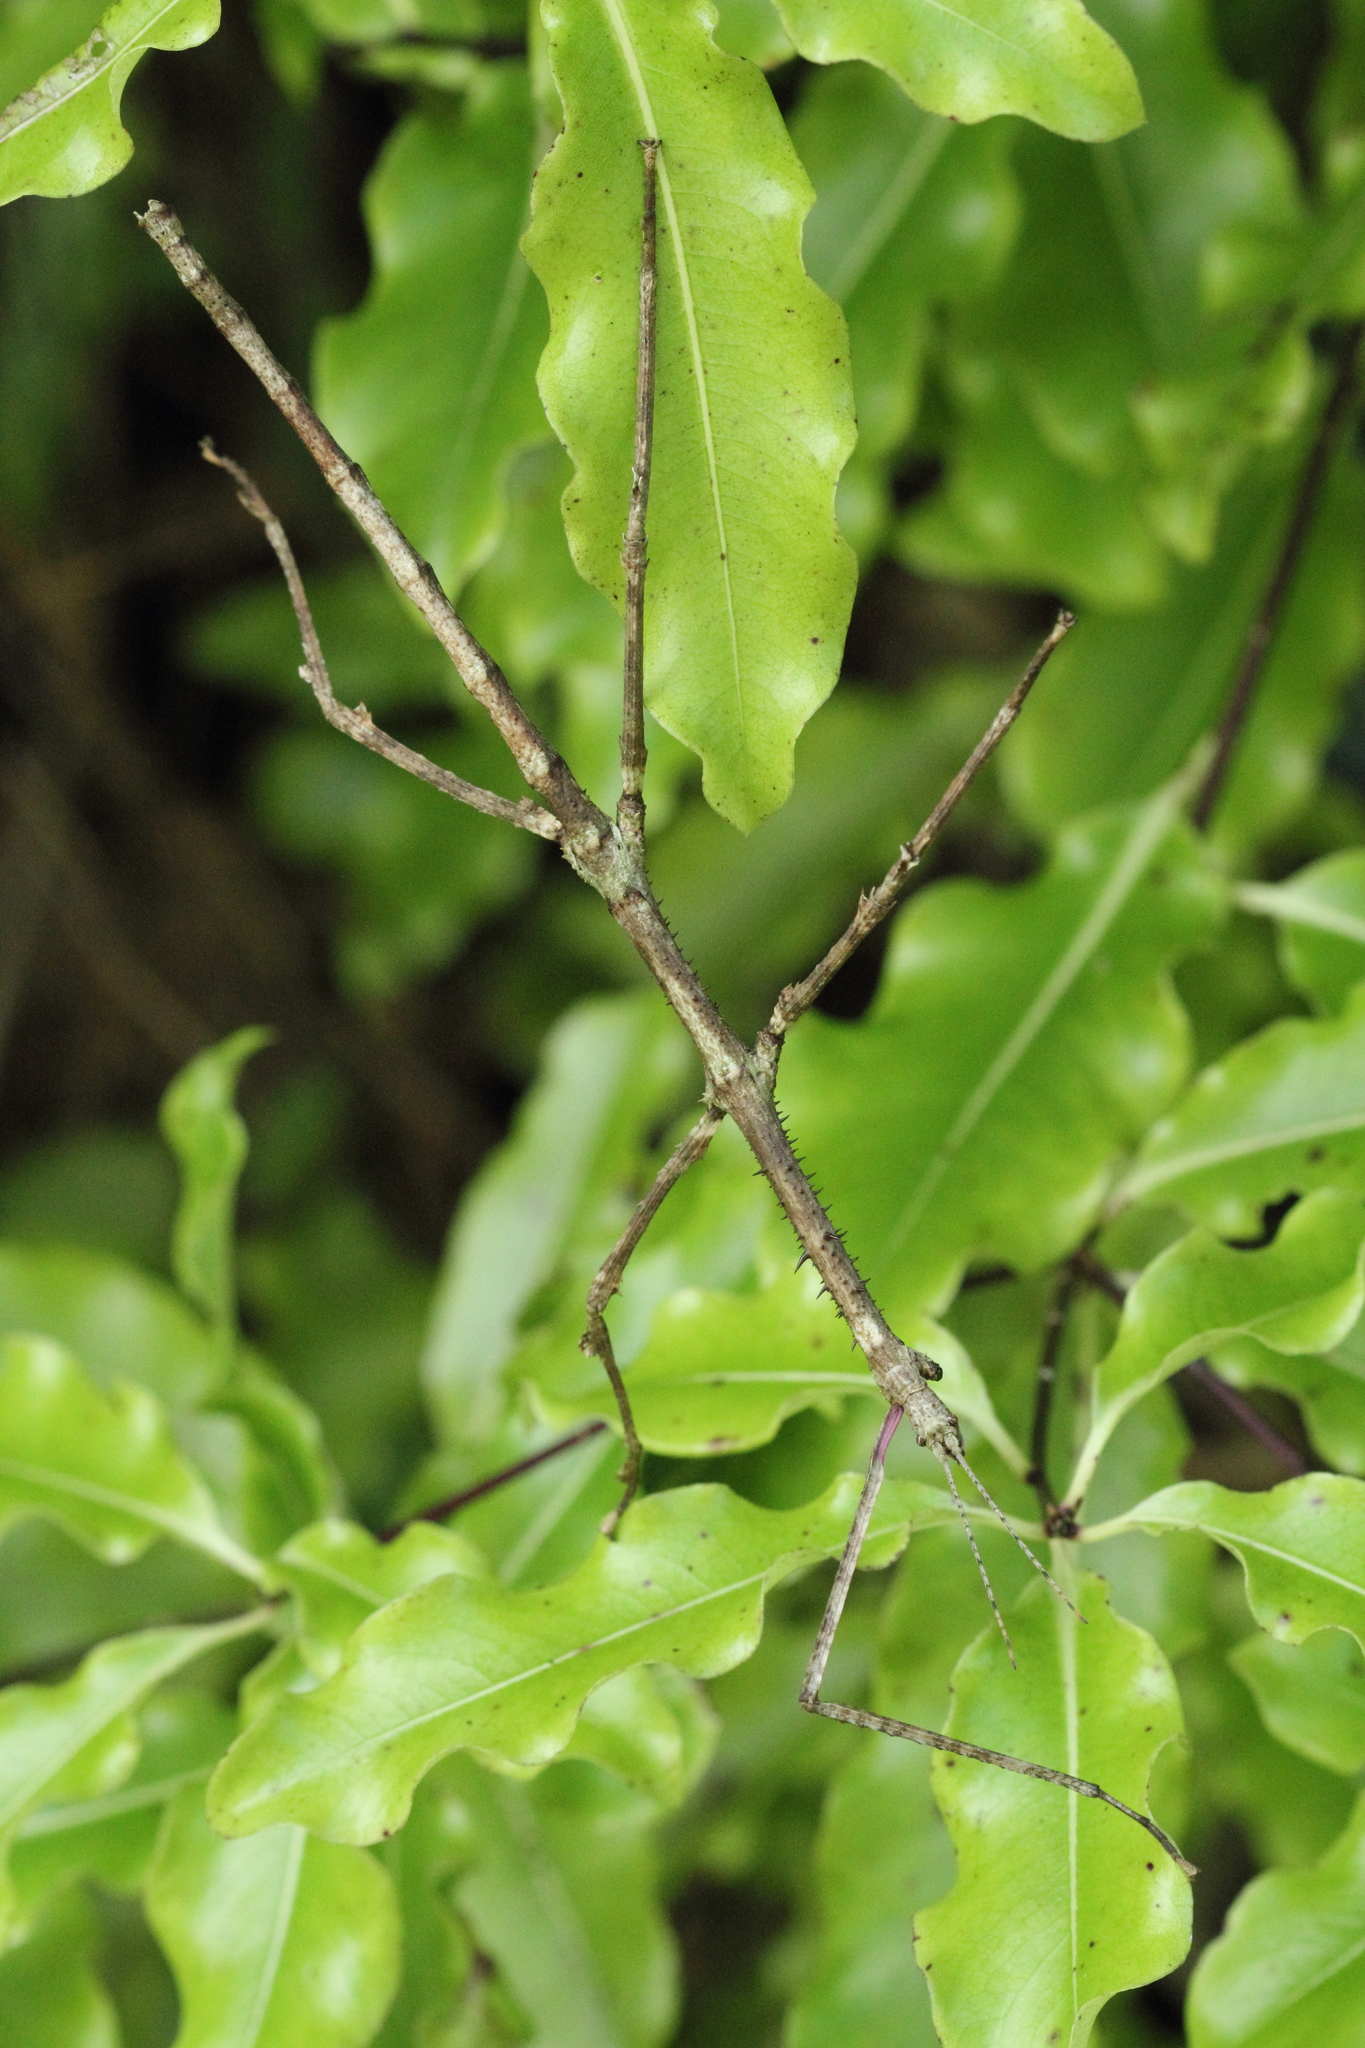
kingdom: Animalia
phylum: Arthropoda
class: Insecta
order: Phasmida
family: Phasmatidae
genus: Argosarchus
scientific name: Argosarchus horridus
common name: Bristly stick insect
